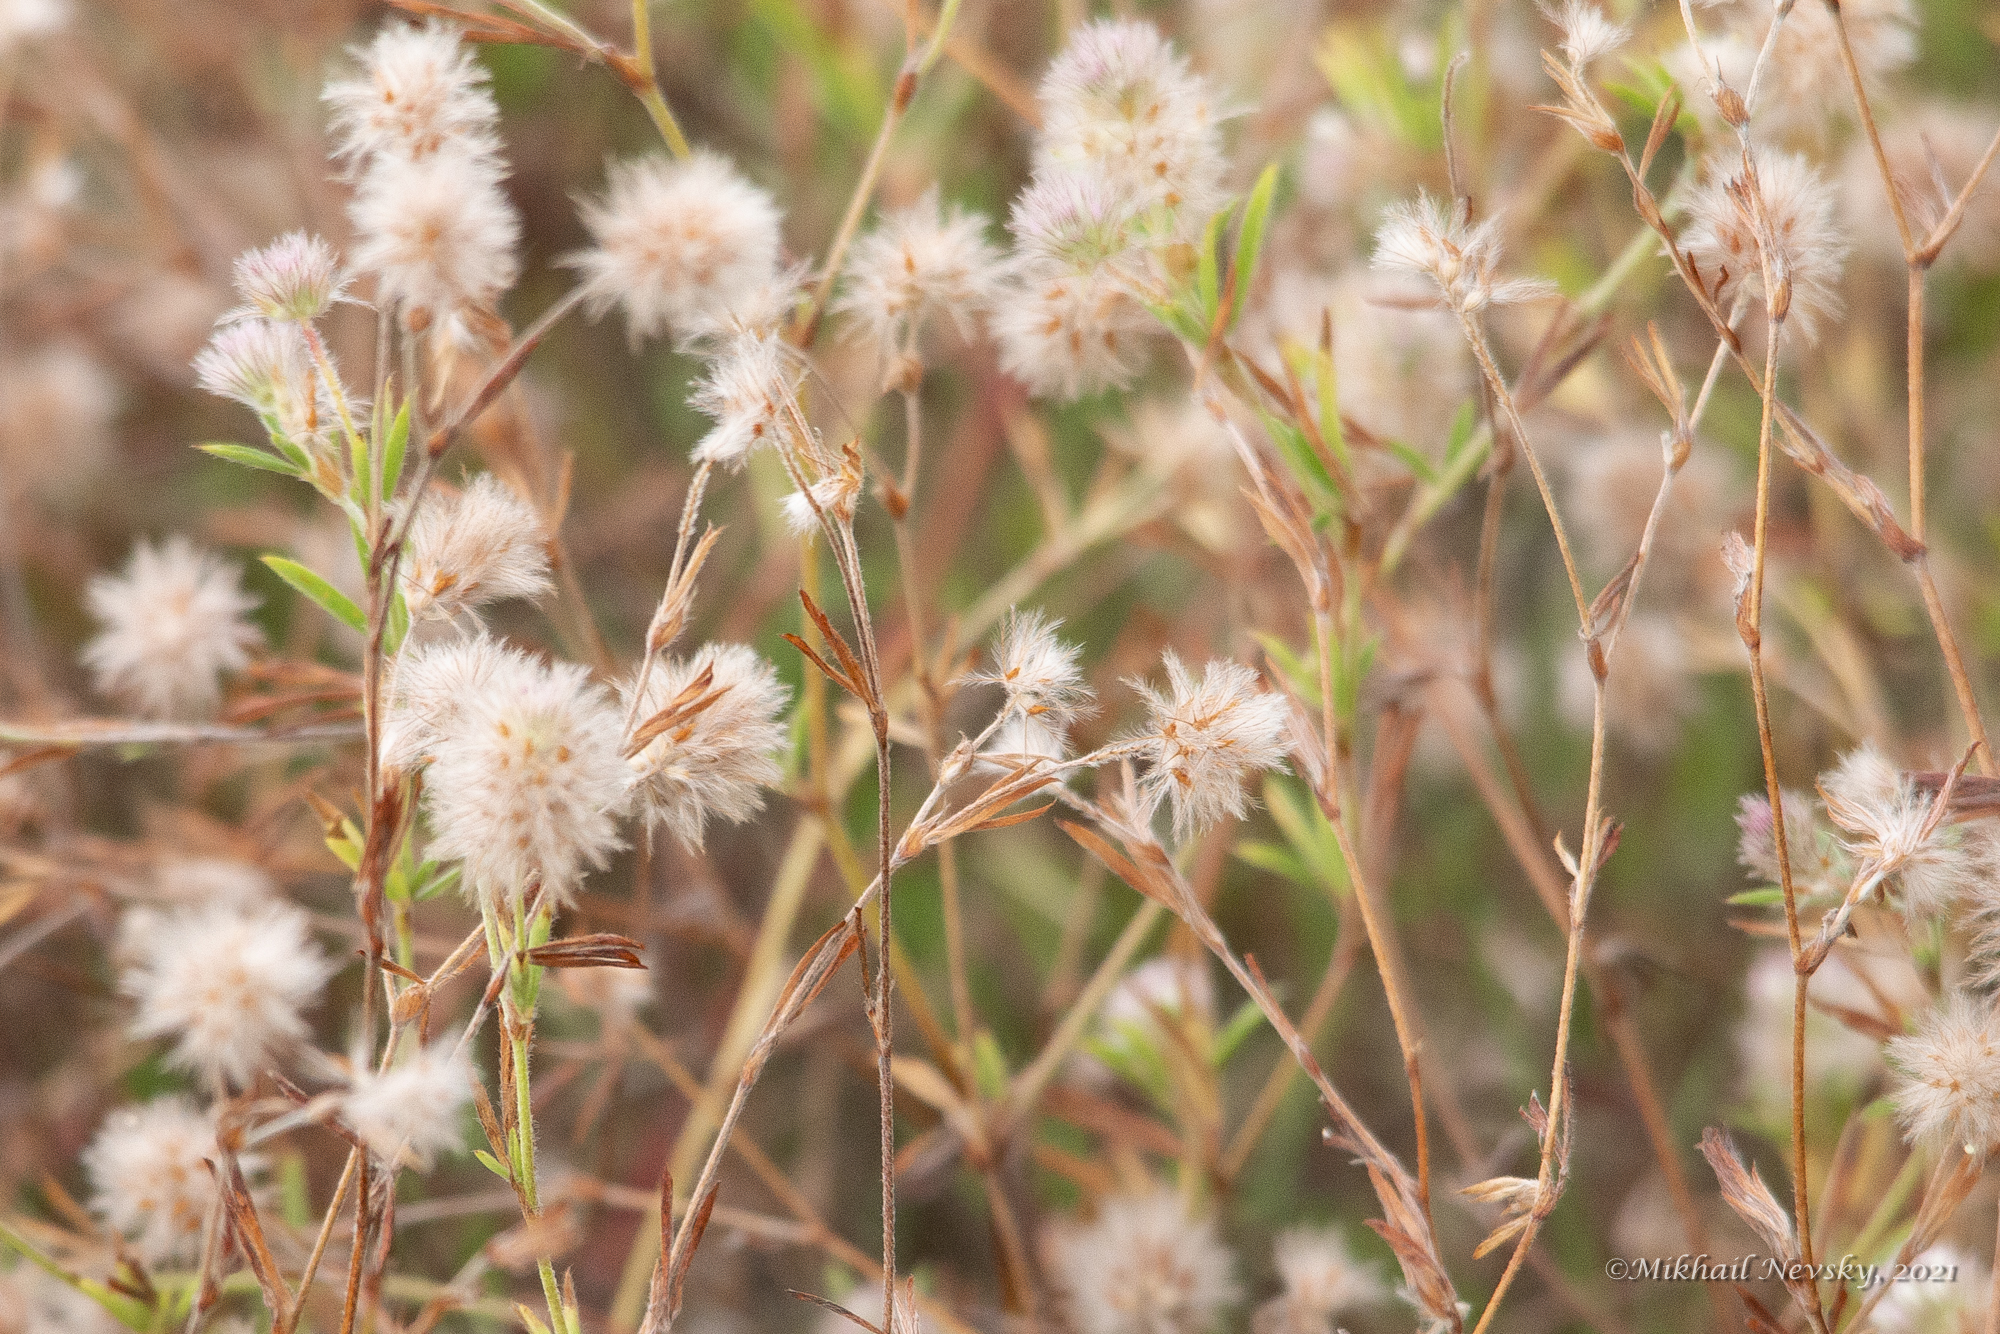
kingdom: Plantae
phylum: Tracheophyta
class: Magnoliopsida
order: Fabales
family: Fabaceae
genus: Trifolium
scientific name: Trifolium arvense
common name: Hare's-foot clover
